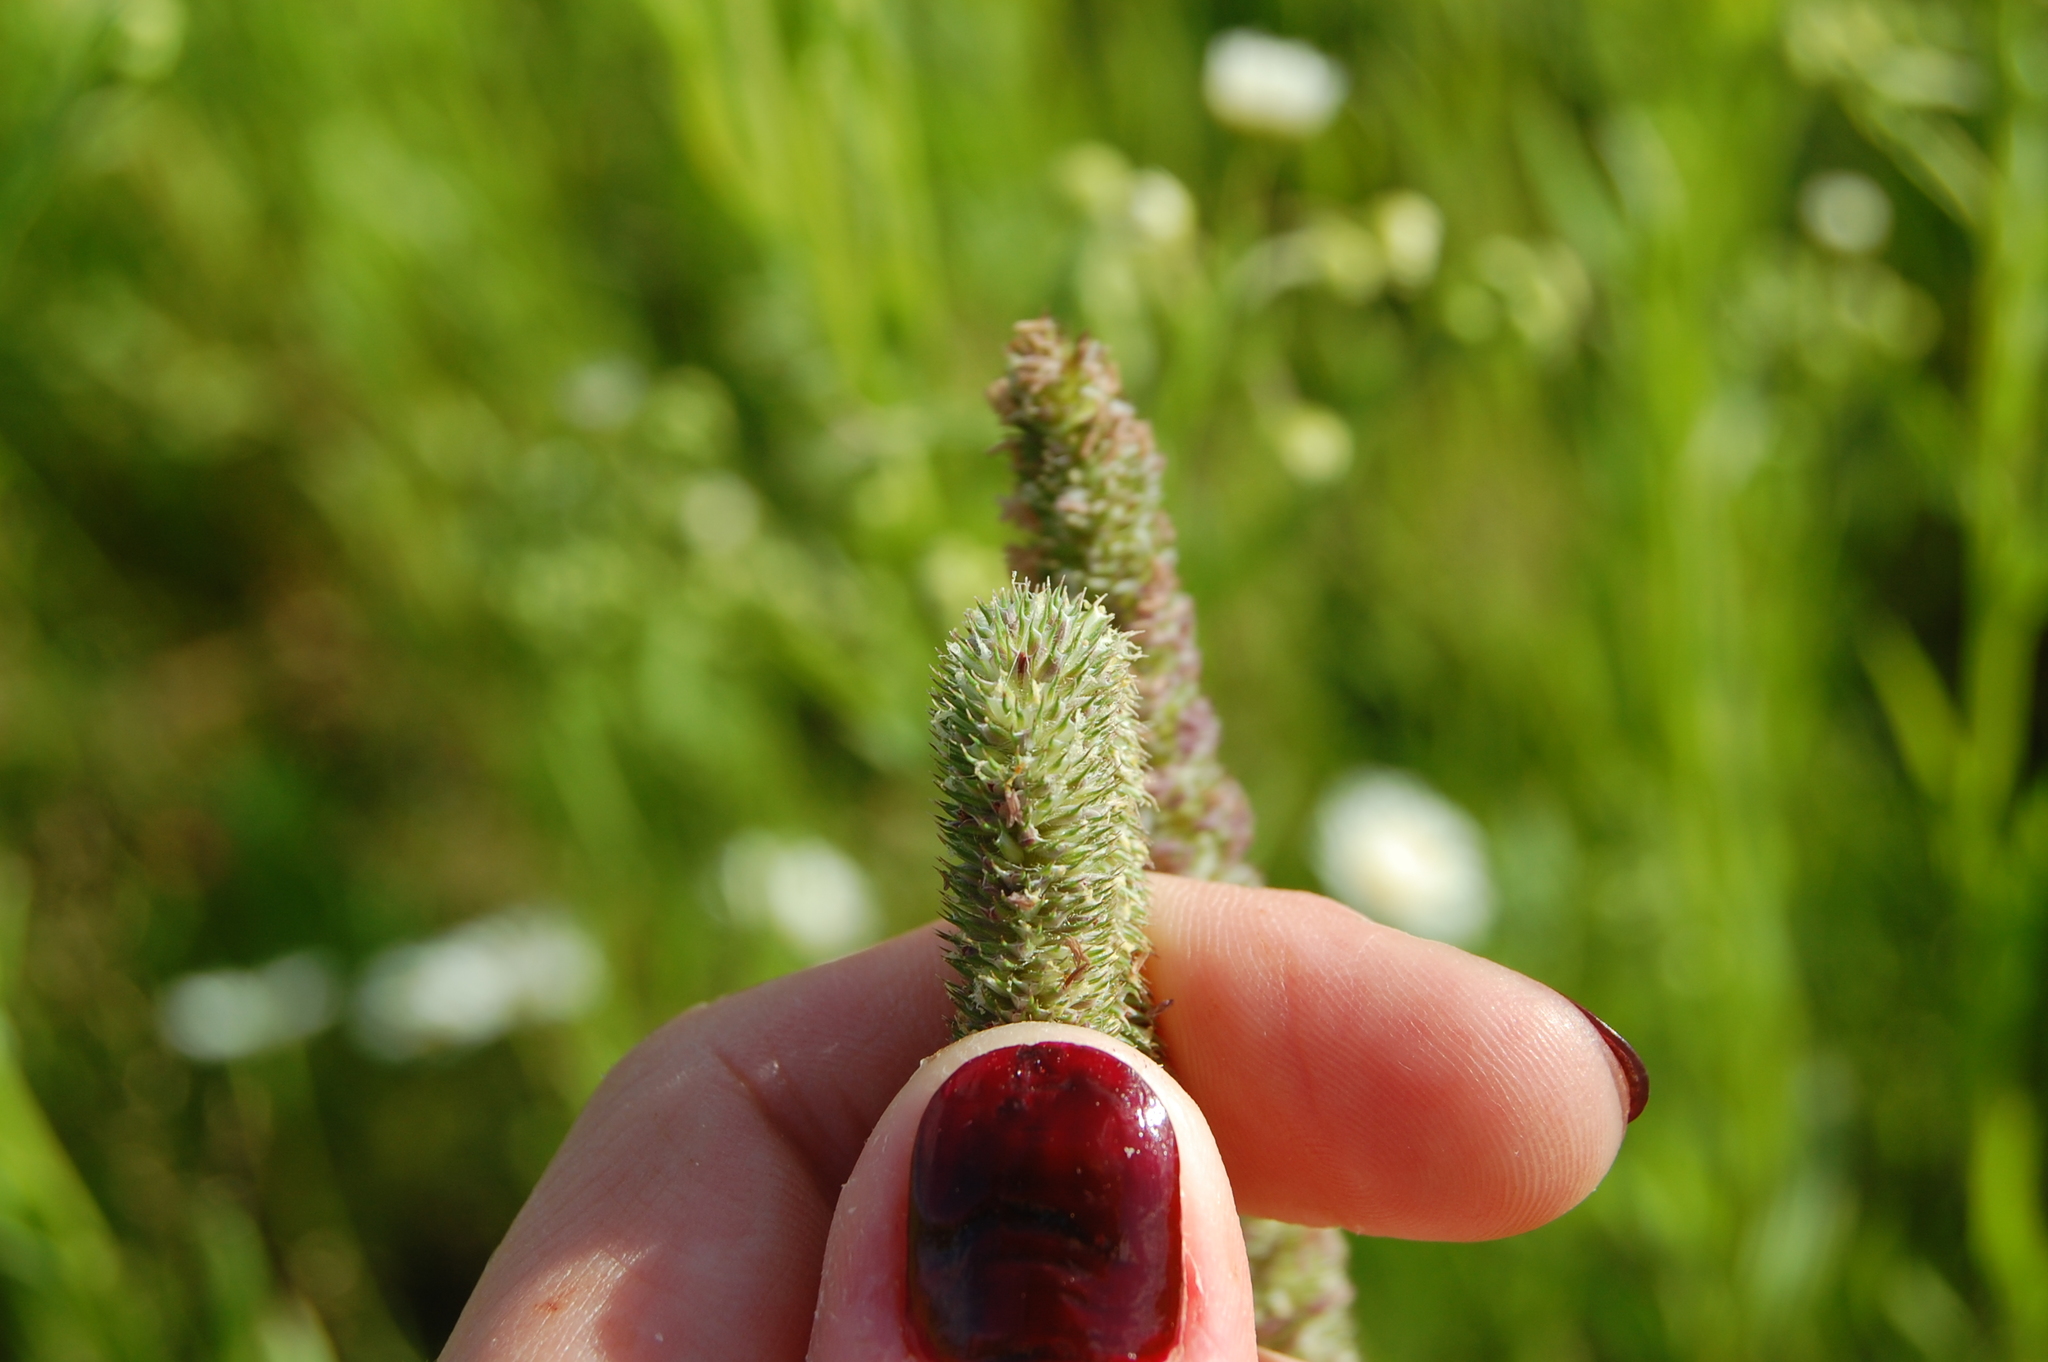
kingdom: Plantae
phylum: Tracheophyta
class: Liliopsida
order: Poales
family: Poaceae
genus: Phleum
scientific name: Phleum pratense
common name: Timothy grass
